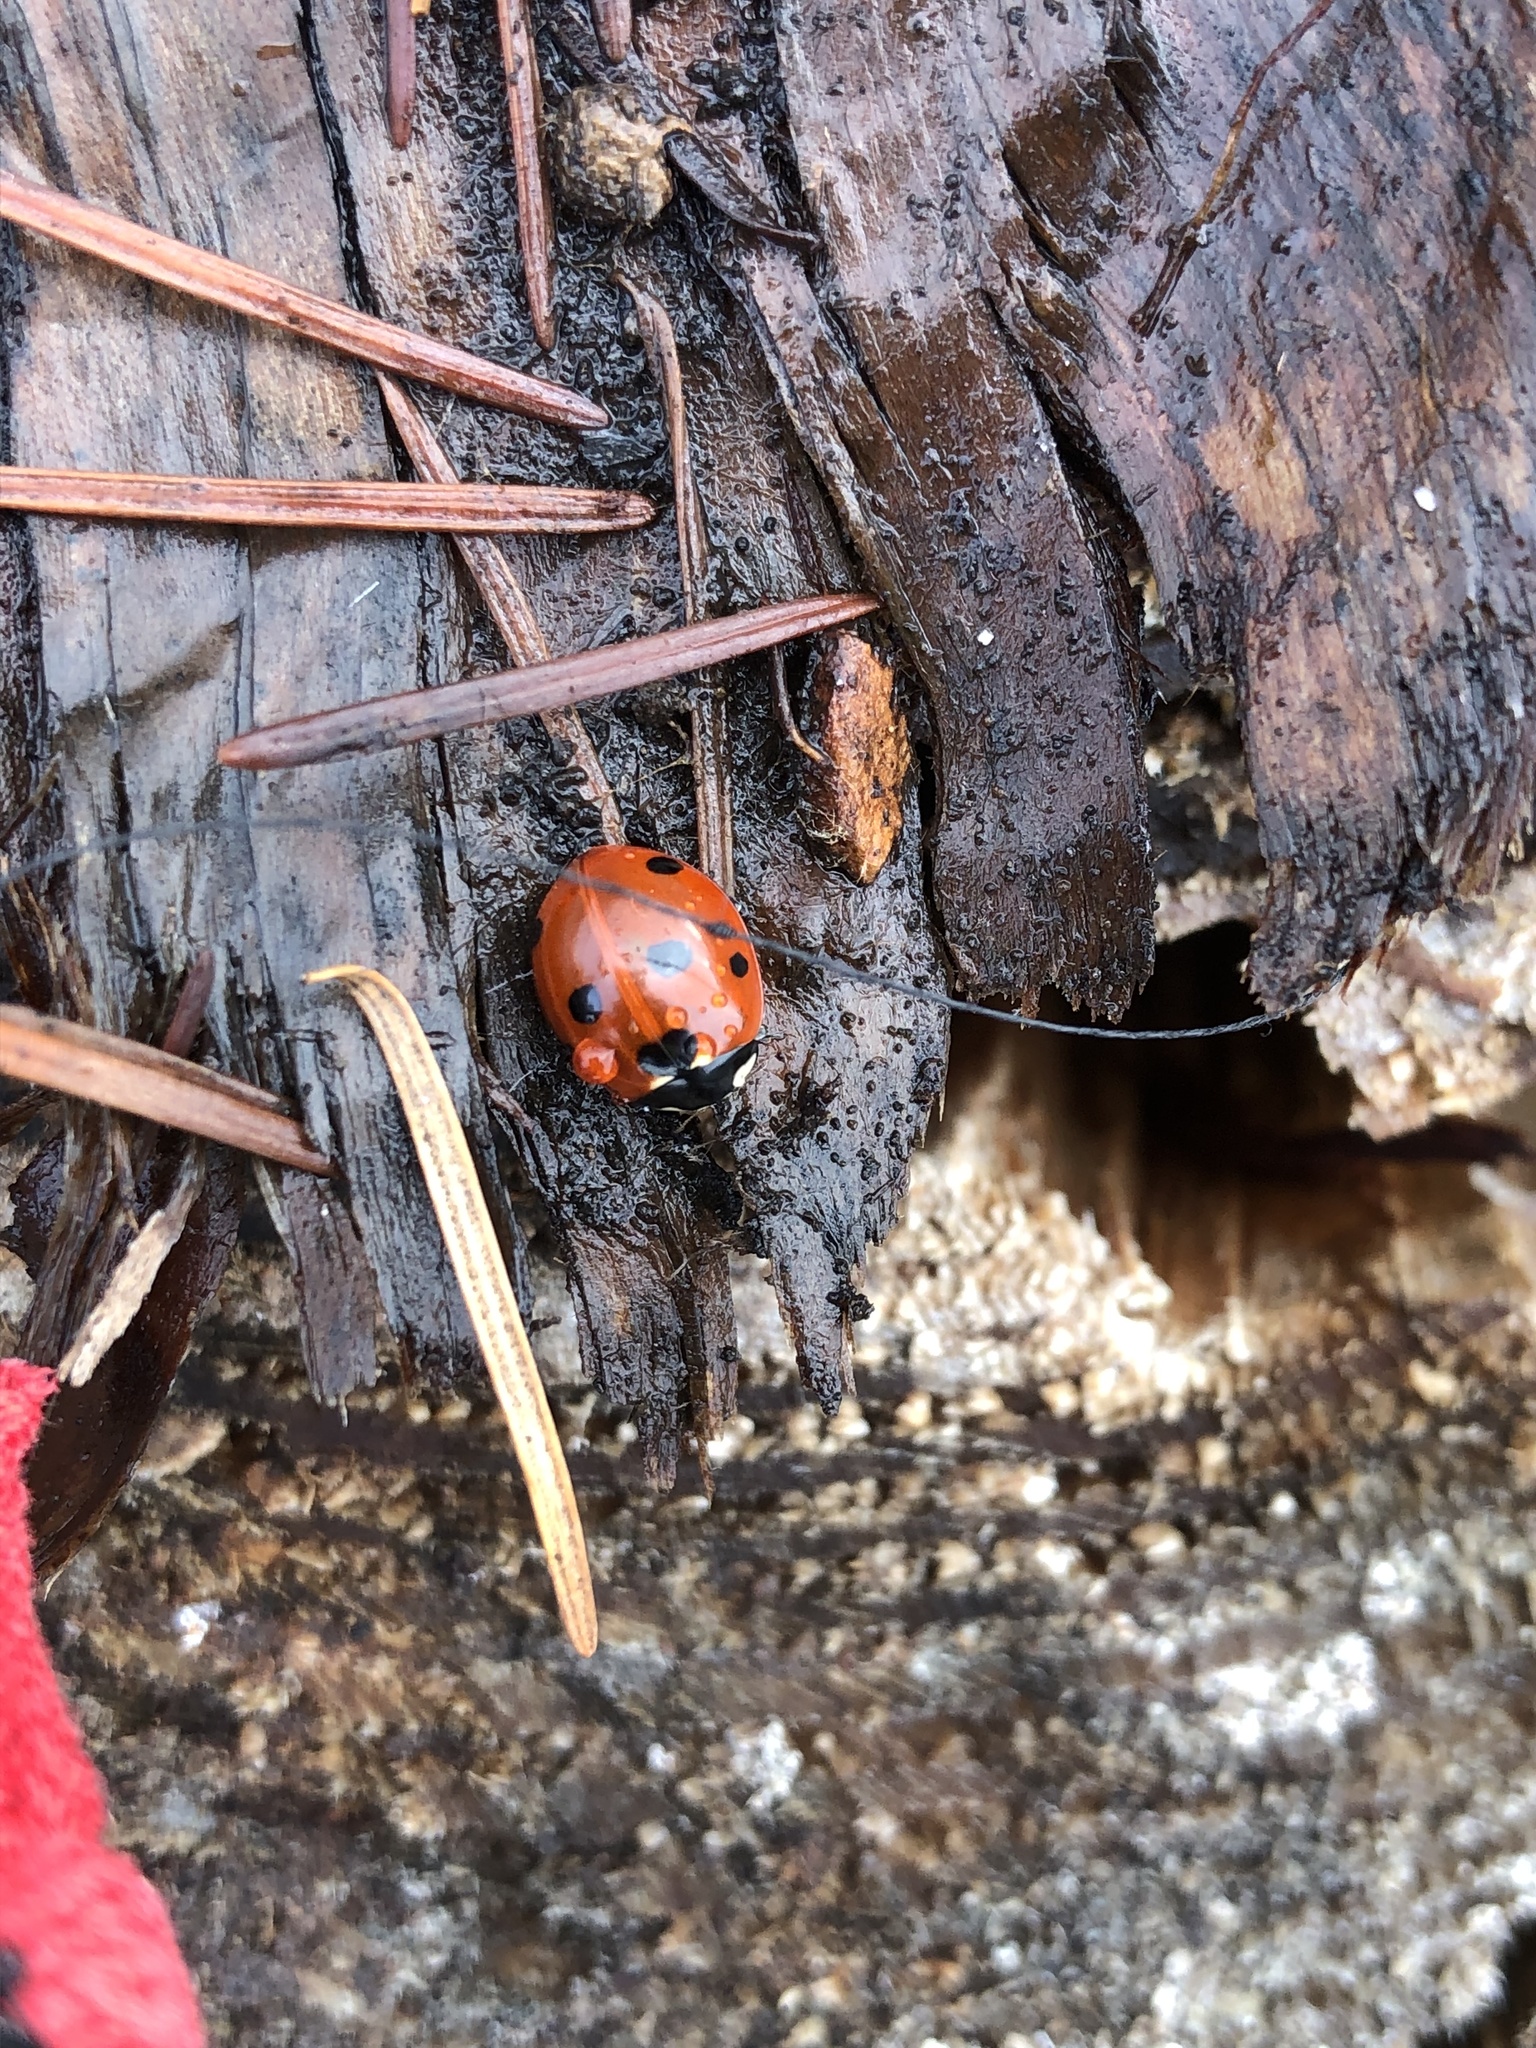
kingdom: Animalia
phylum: Arthropoda
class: Insecta
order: Coleoptera
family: Coccinellidae
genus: Coccinella
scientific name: Coccinella septempunctata
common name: Sevenspotted lady beetle
